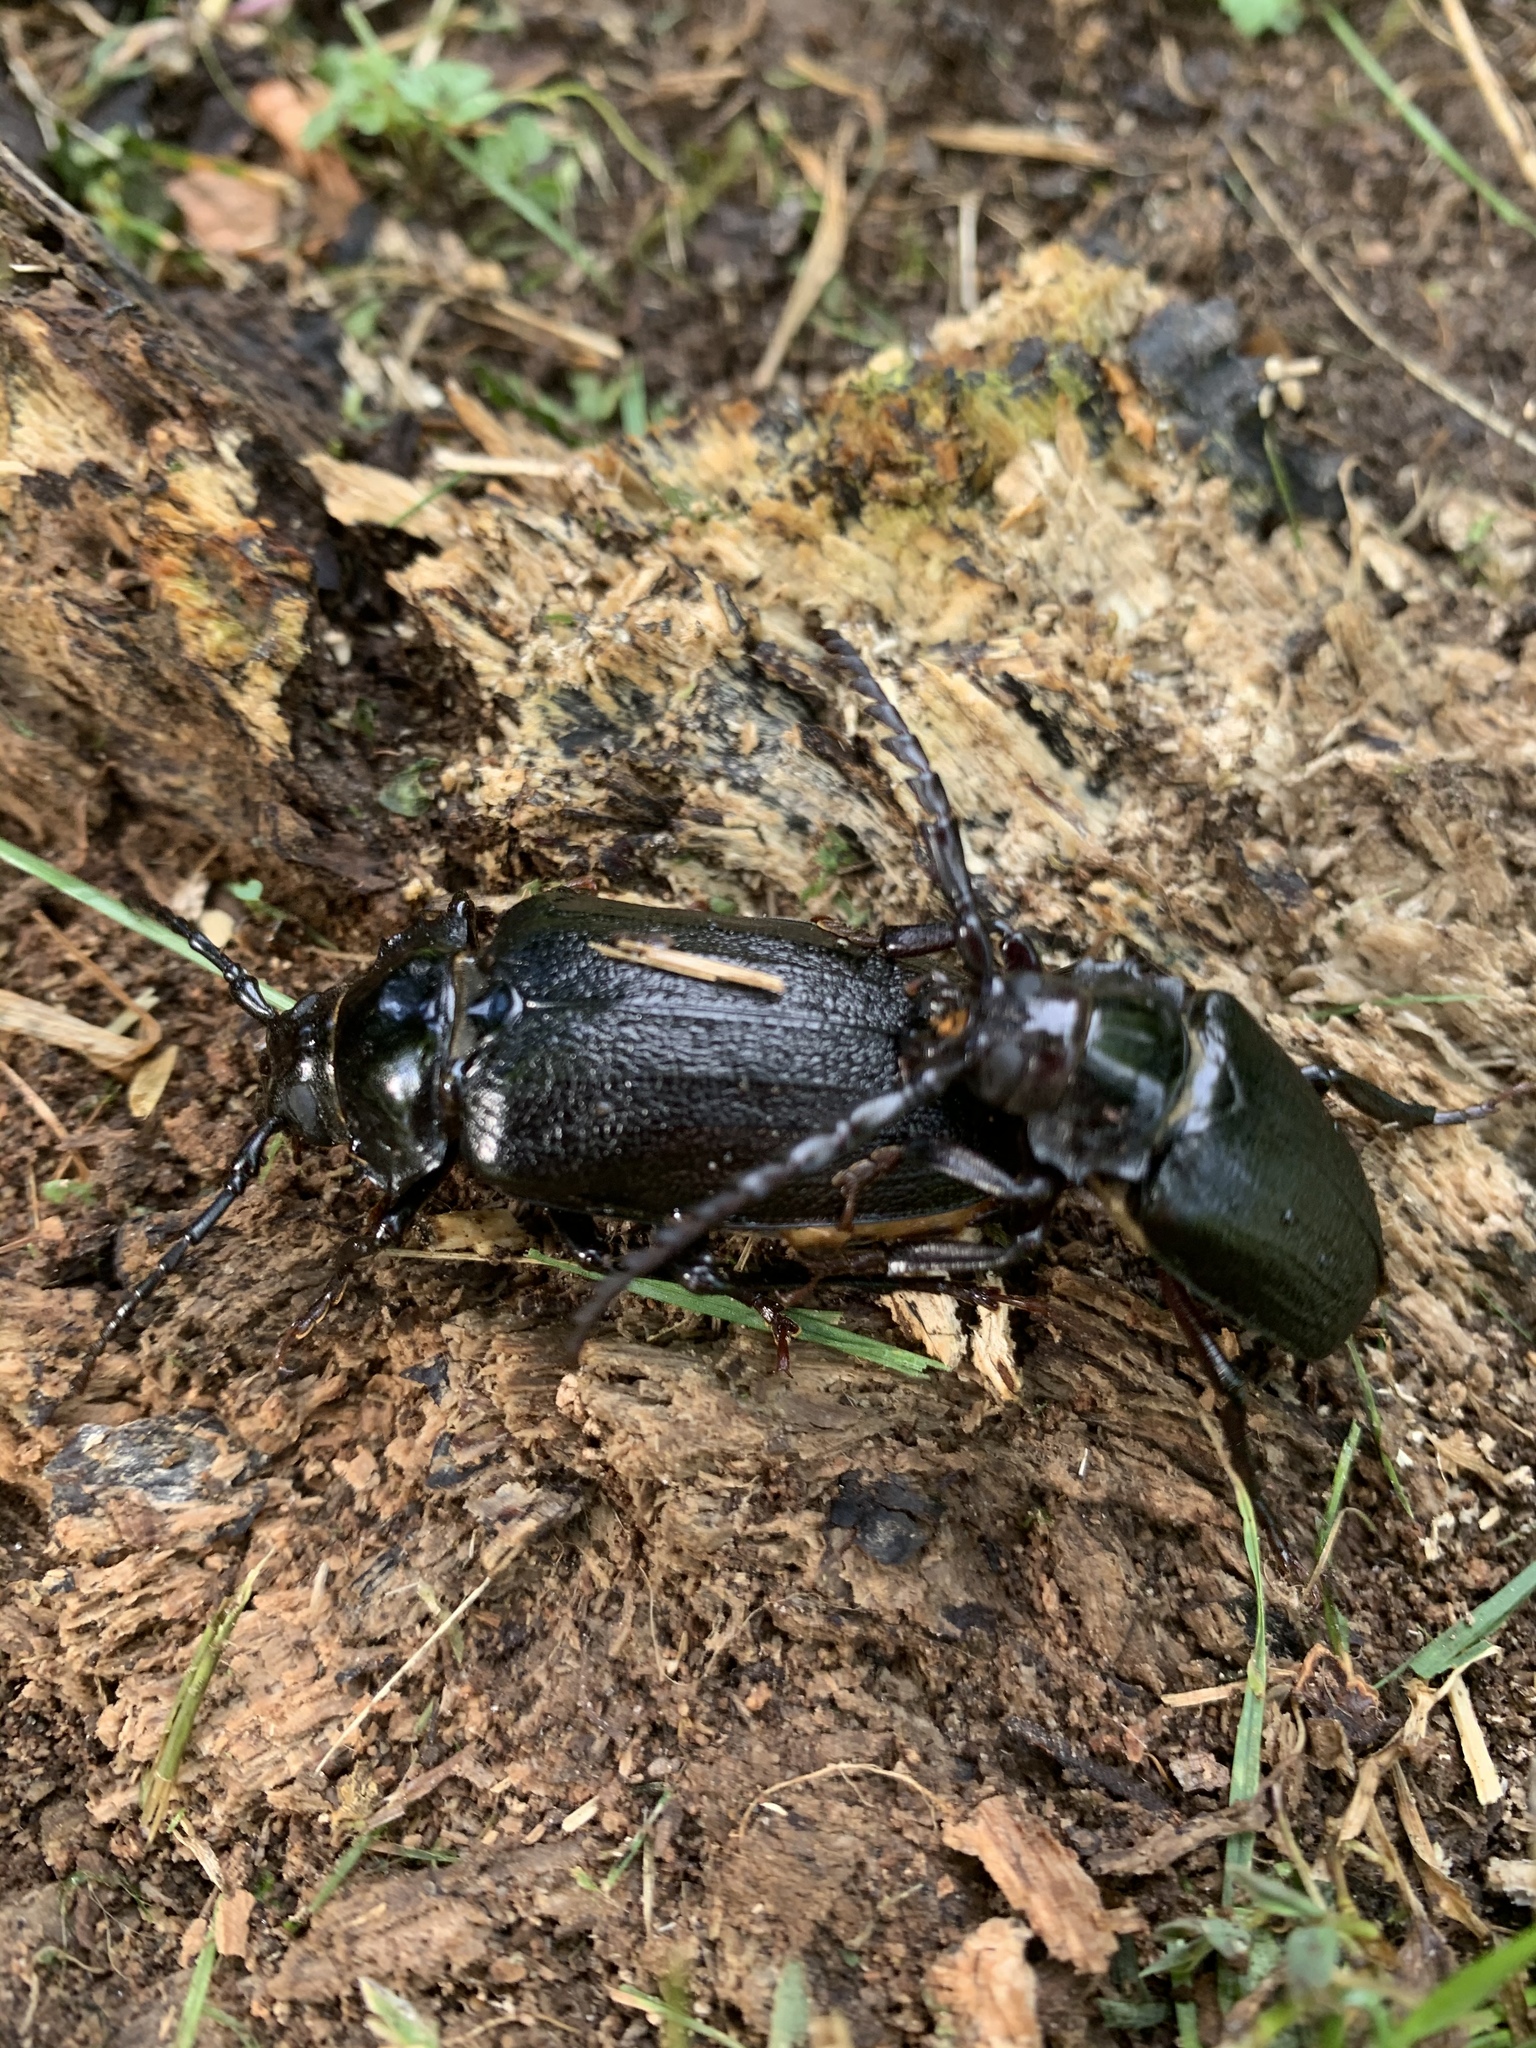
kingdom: Animalia
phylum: Arthropoda
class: Insecta
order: Coleoptera
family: Cerambycidae
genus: Prionus
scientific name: Prionus laticollis
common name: Broad necked prionus
